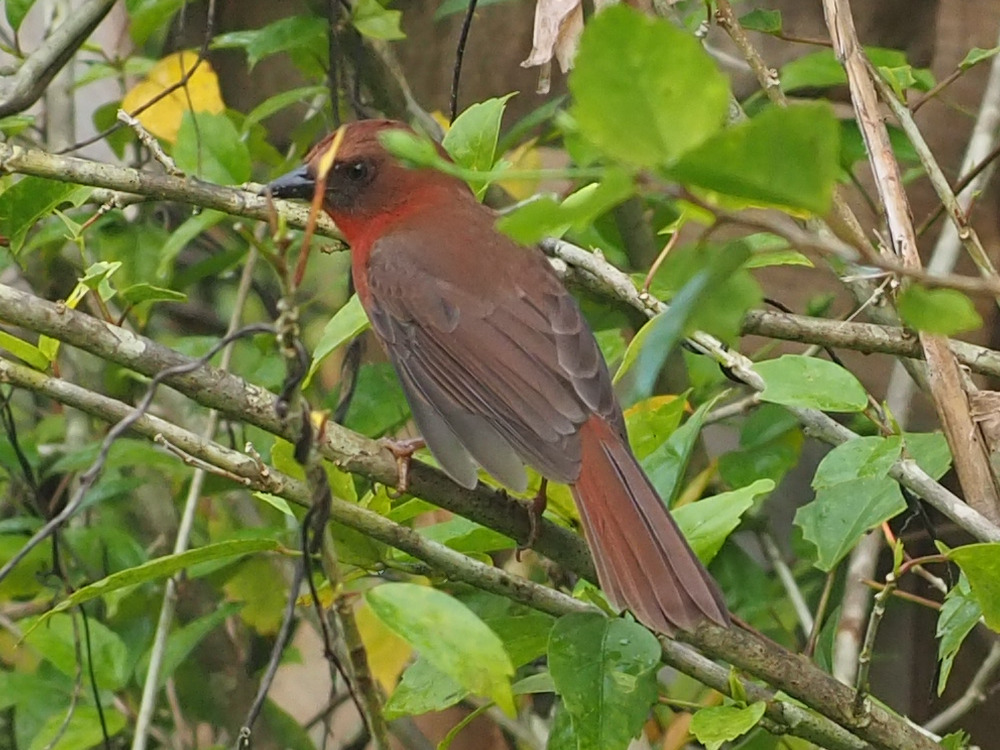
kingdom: Animalia
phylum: Chordata
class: Aves
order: Passeriformes
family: Cardinalidae
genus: Habia
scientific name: Habia fuscicauda
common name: Red-throated ant-tanager
